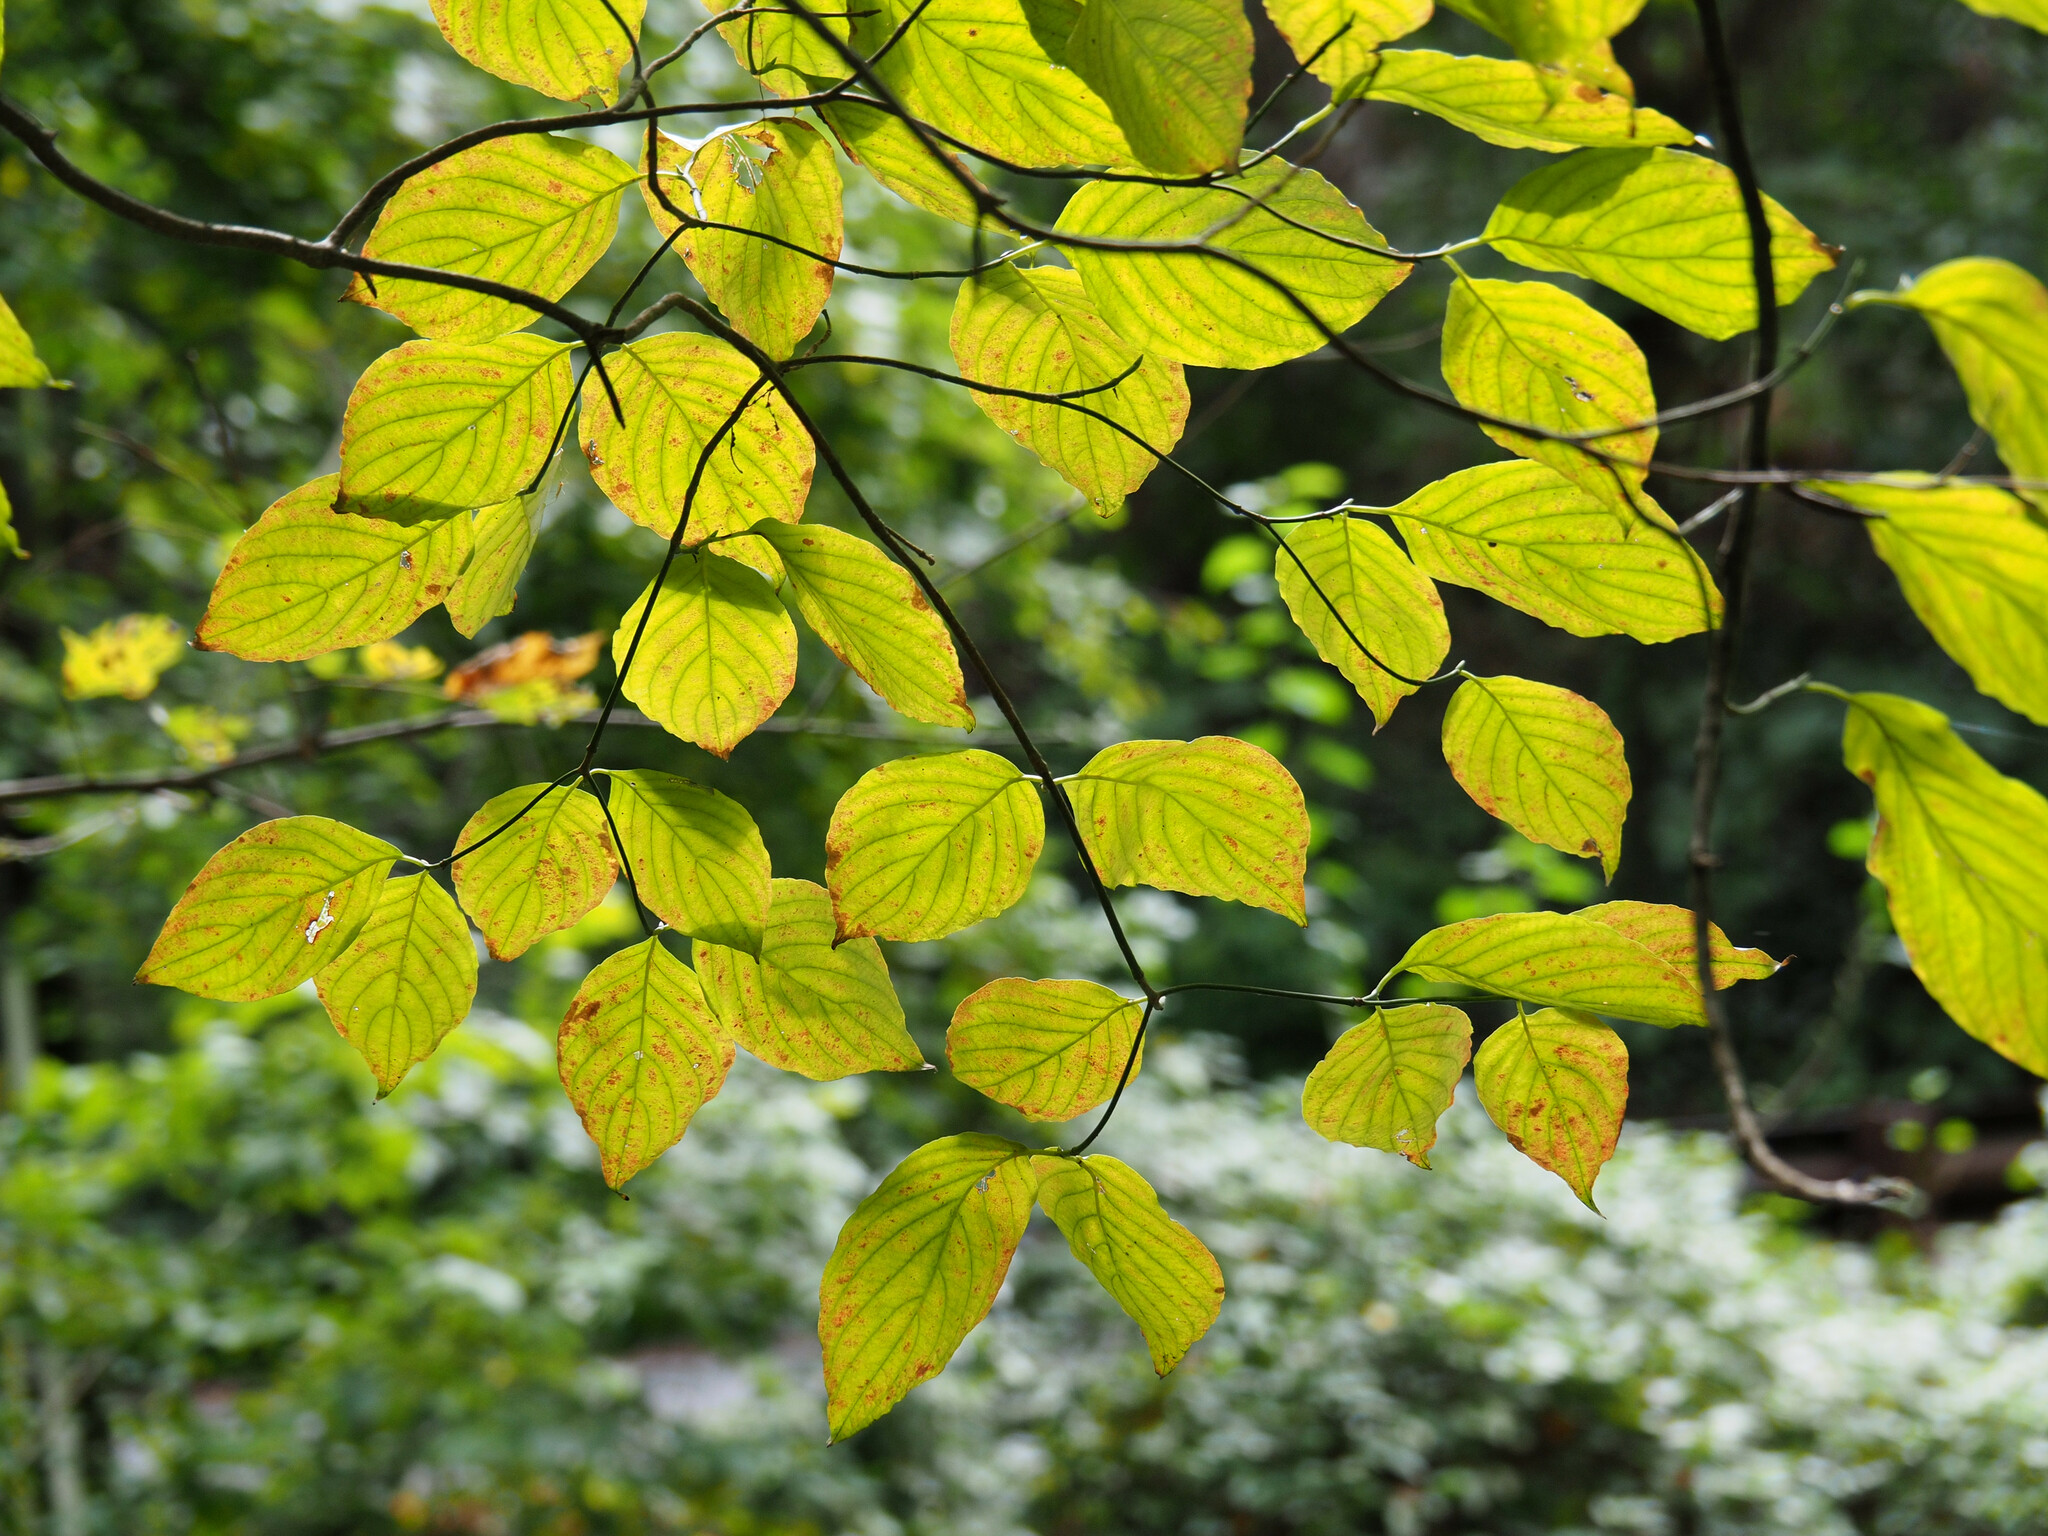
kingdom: Plantae
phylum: Tracheophyta
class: Magnoliopsida
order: Cornales
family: Cornaceae
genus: Cornus
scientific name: Cornus florida
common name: Flowering dogwood
